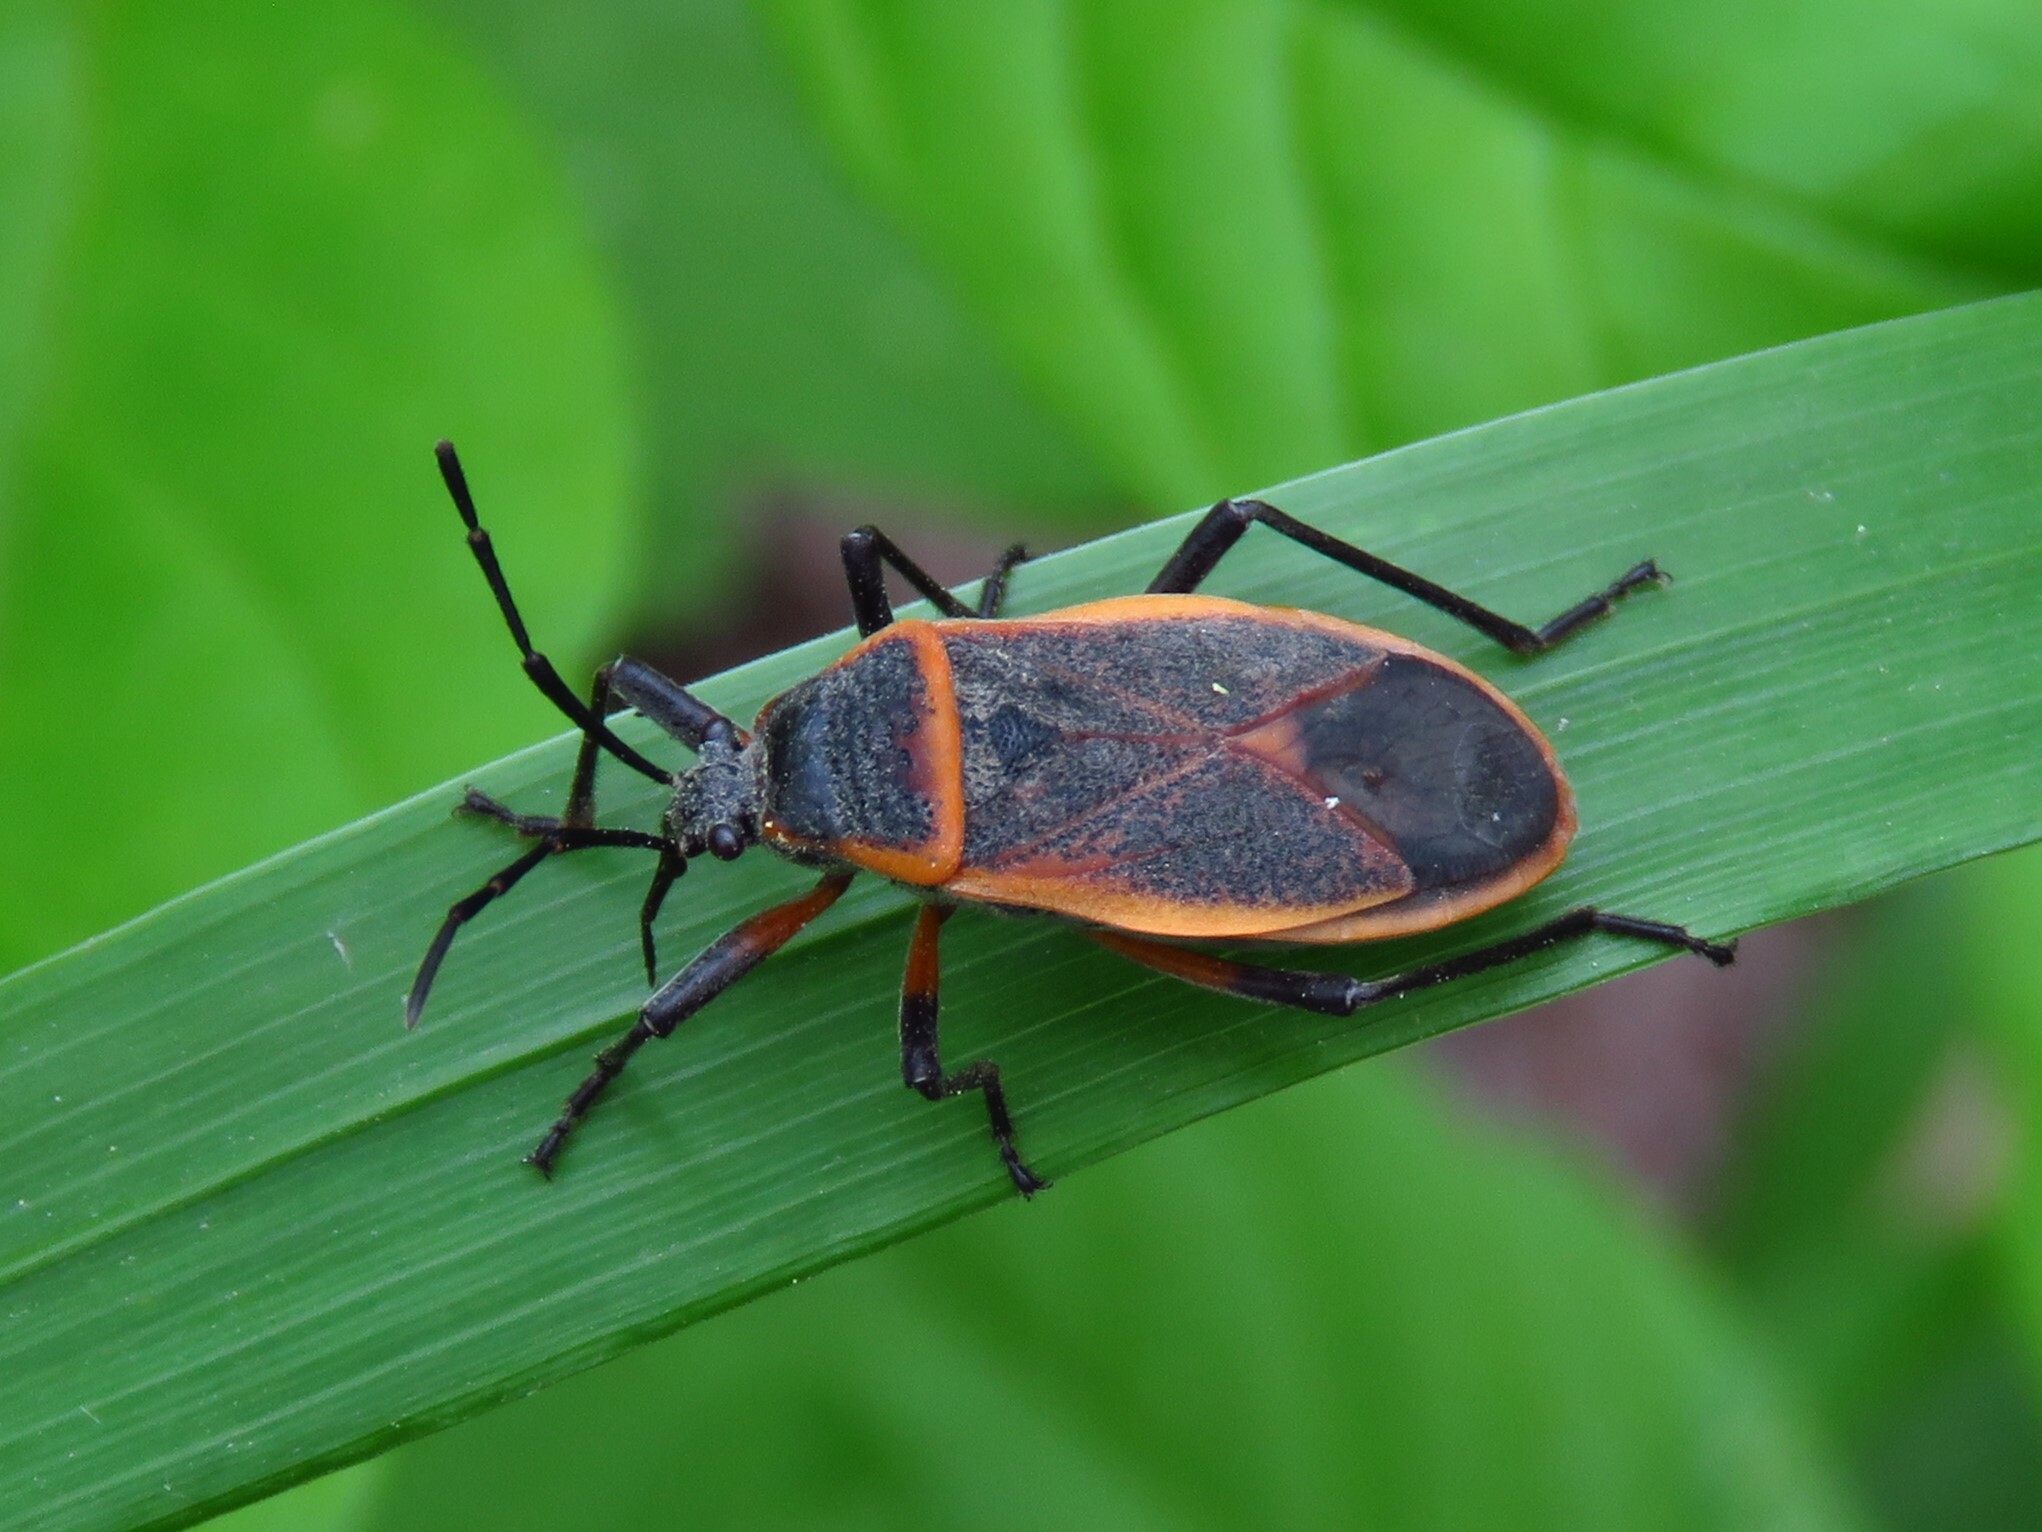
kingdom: Animalia
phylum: Arthropoda
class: Insecta
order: Hemiptera
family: Largidae
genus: Largus
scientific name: Largus succinctus
